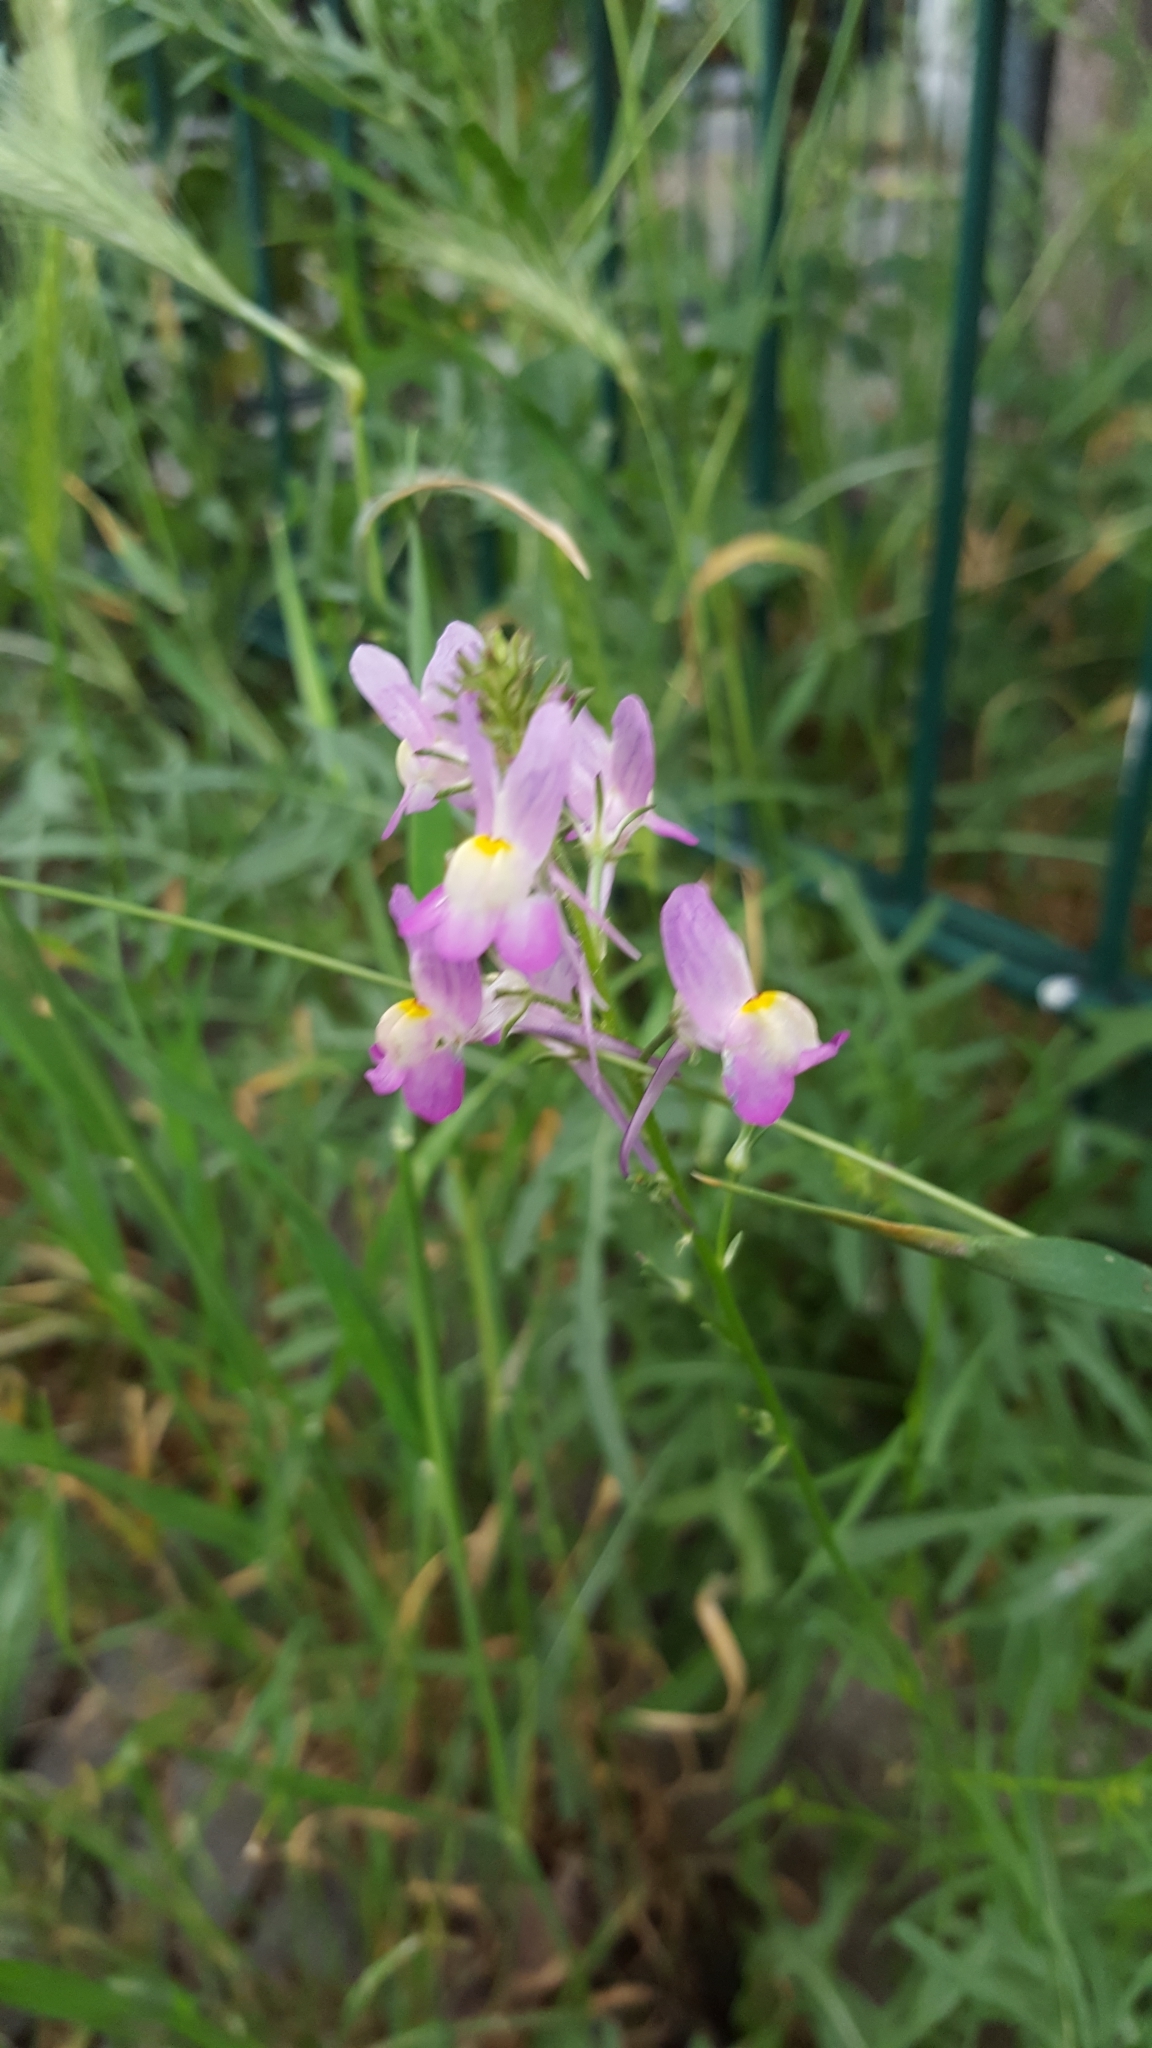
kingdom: Plantae
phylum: Tracheophyta
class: Magnoliopsida
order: Lamiales
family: Plantaginaceae
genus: Linaria
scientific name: Linaria maroccana
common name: Moroccan toadflax
